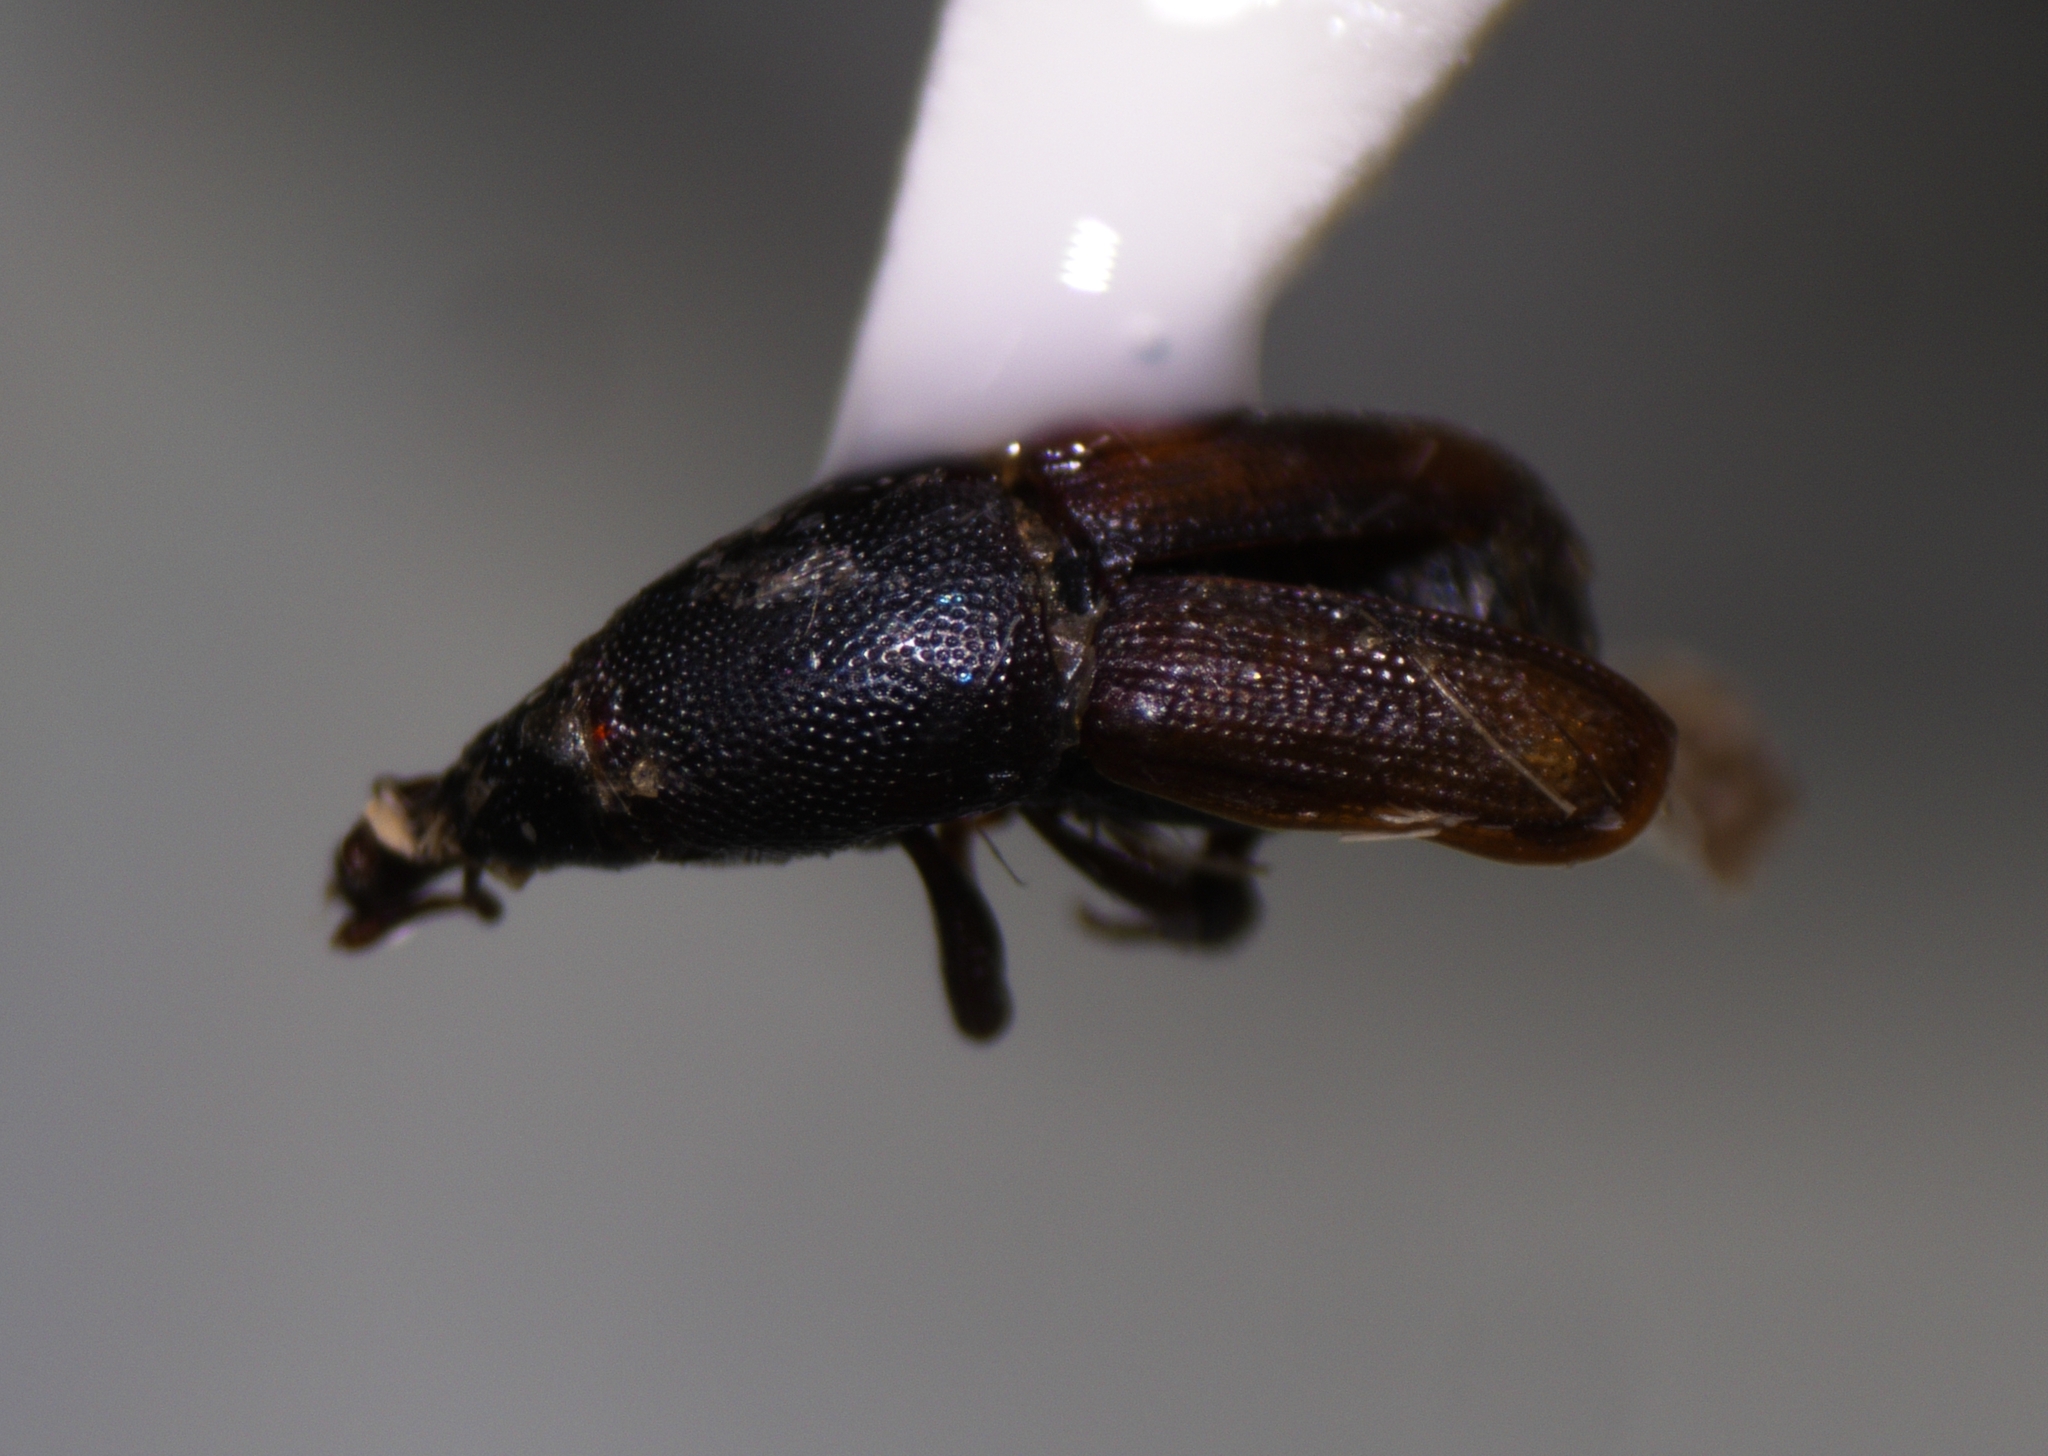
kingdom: Animalia
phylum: Arthropoda
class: Insecta
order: Coleoptera
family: Dryophthoridae
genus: Sitophilus
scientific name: Sitophilus linearis
